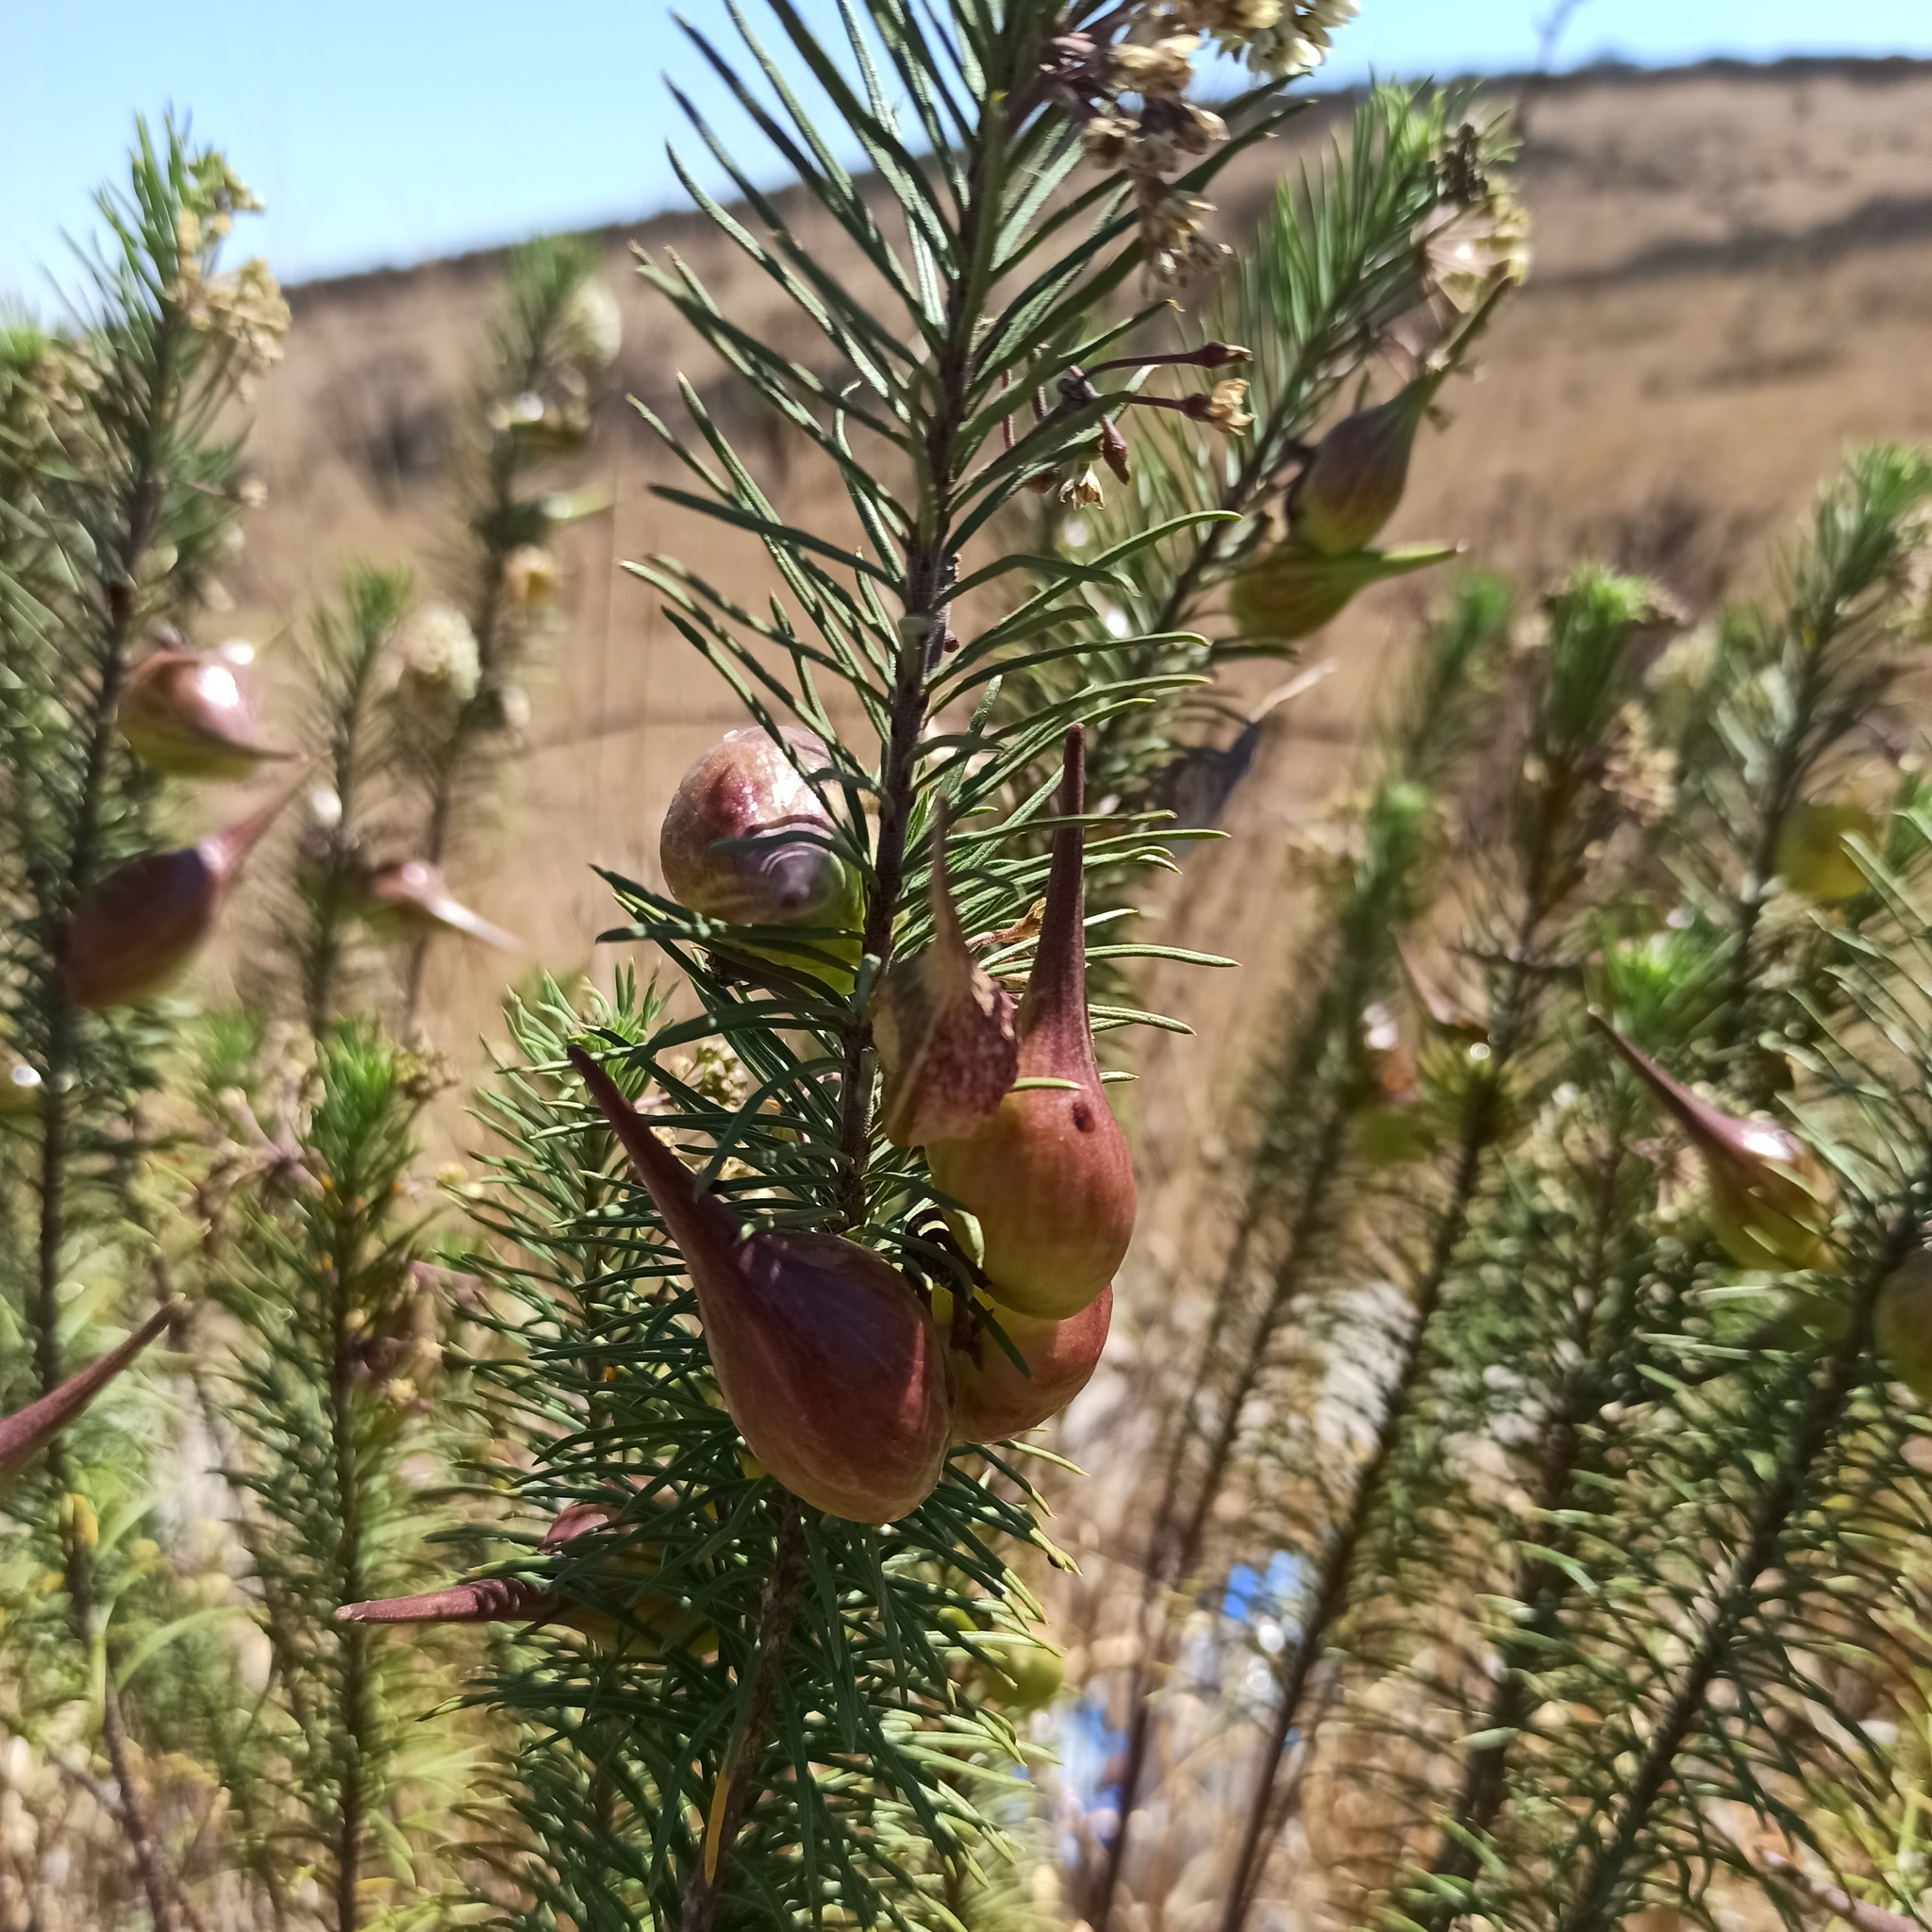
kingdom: Plantae
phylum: Tracheophyta
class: Magnoliopsida
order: Gentianales
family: Apocynaceae
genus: Asclepias
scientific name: Asclepias linaria
